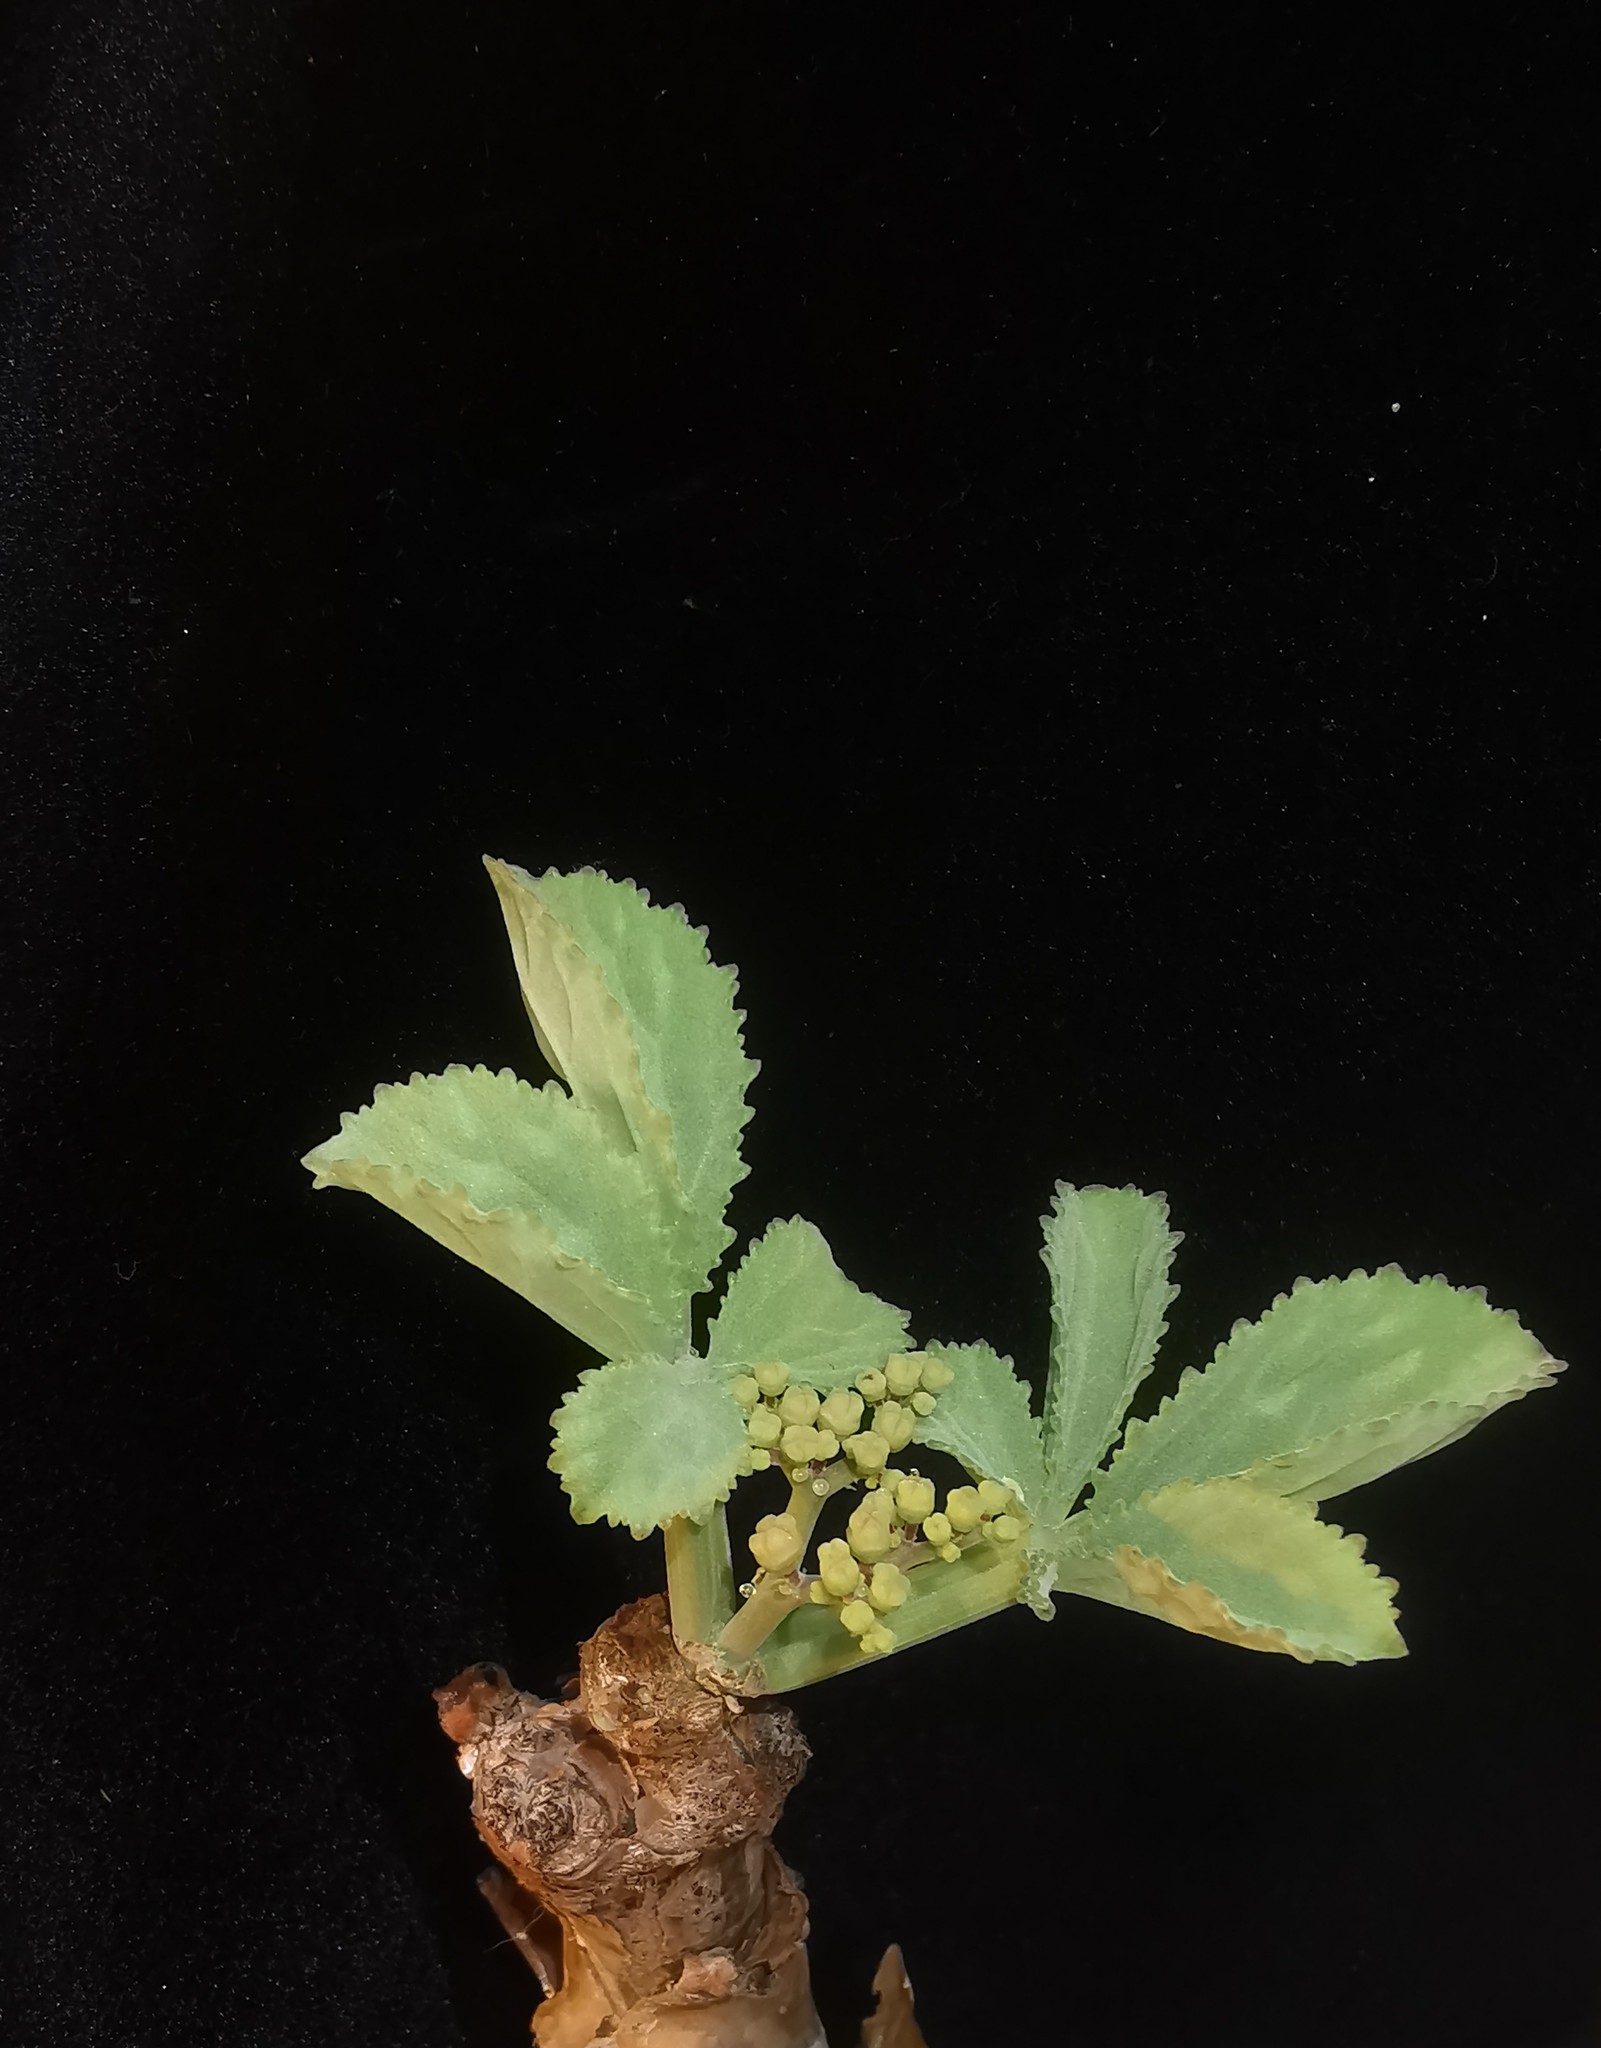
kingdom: Plantae
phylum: Tracheophyta
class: Magnoliopsida
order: Vitales
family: Vitaceae
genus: Cyphostemma
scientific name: Cyphostemma betiforme
